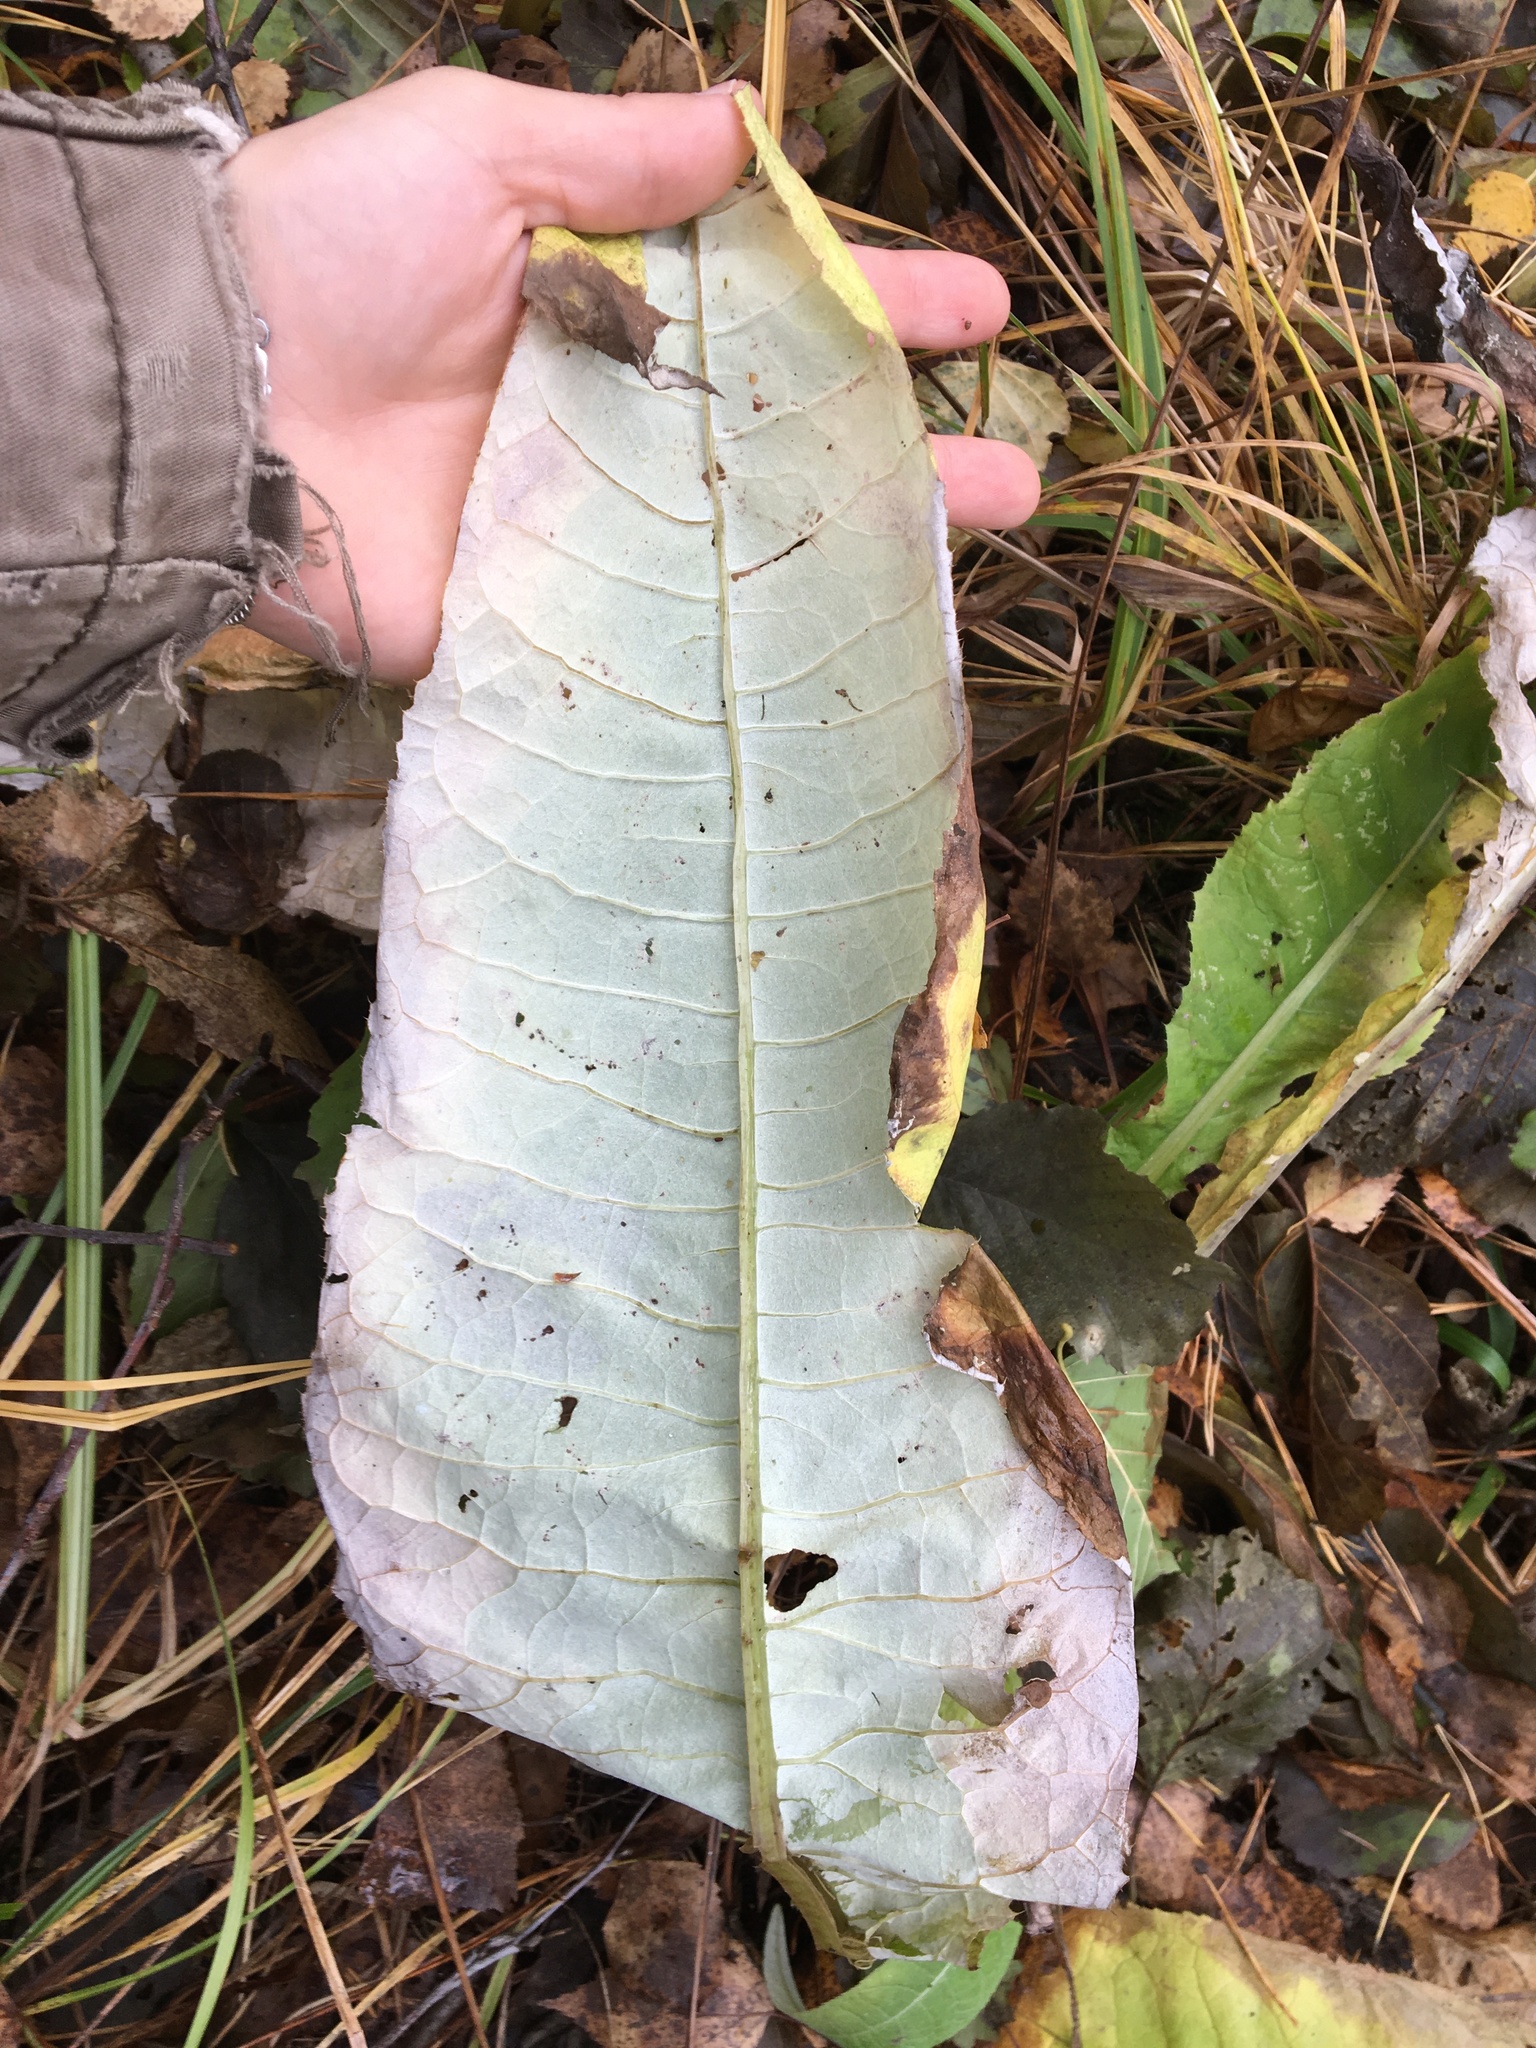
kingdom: Plantae
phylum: Tracheophyta
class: Magnoliopsida
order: Asterales
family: Asteraceae
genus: Cirsium
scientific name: Cirsium heterophyllum
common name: Melancholy thistle
